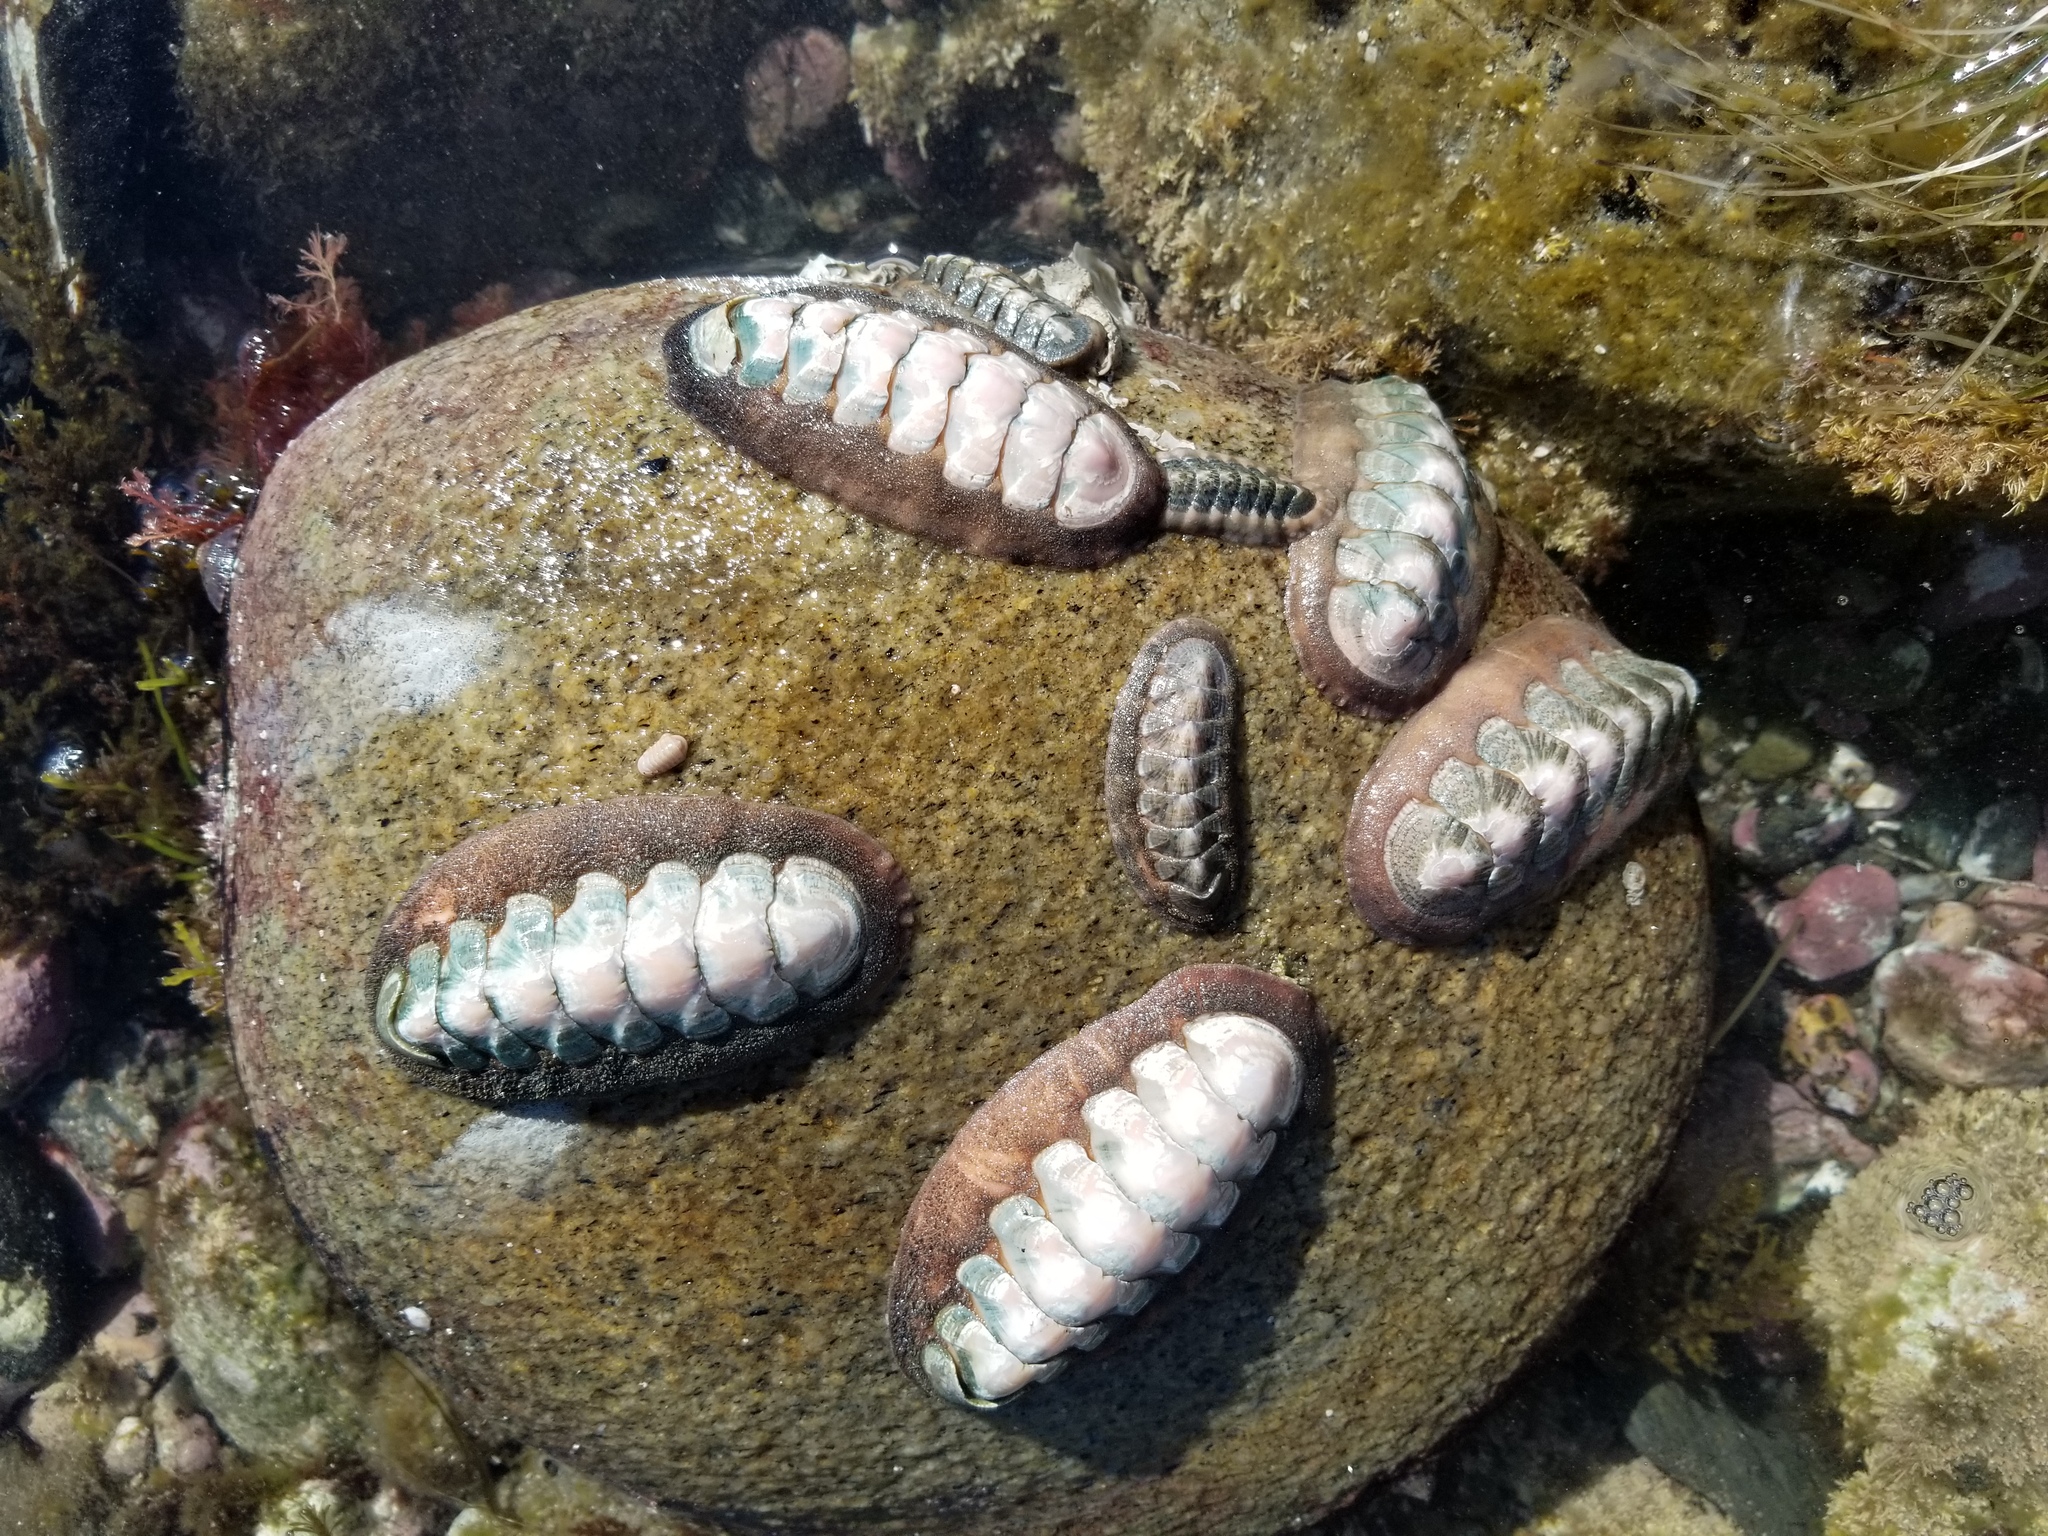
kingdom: Animalia
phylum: Mollusca
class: Polyplacophora
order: Chitonida
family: Ischnochitonidae
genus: Stenoplax
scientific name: Stenoplax conspicua
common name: Conspicuous chiton
